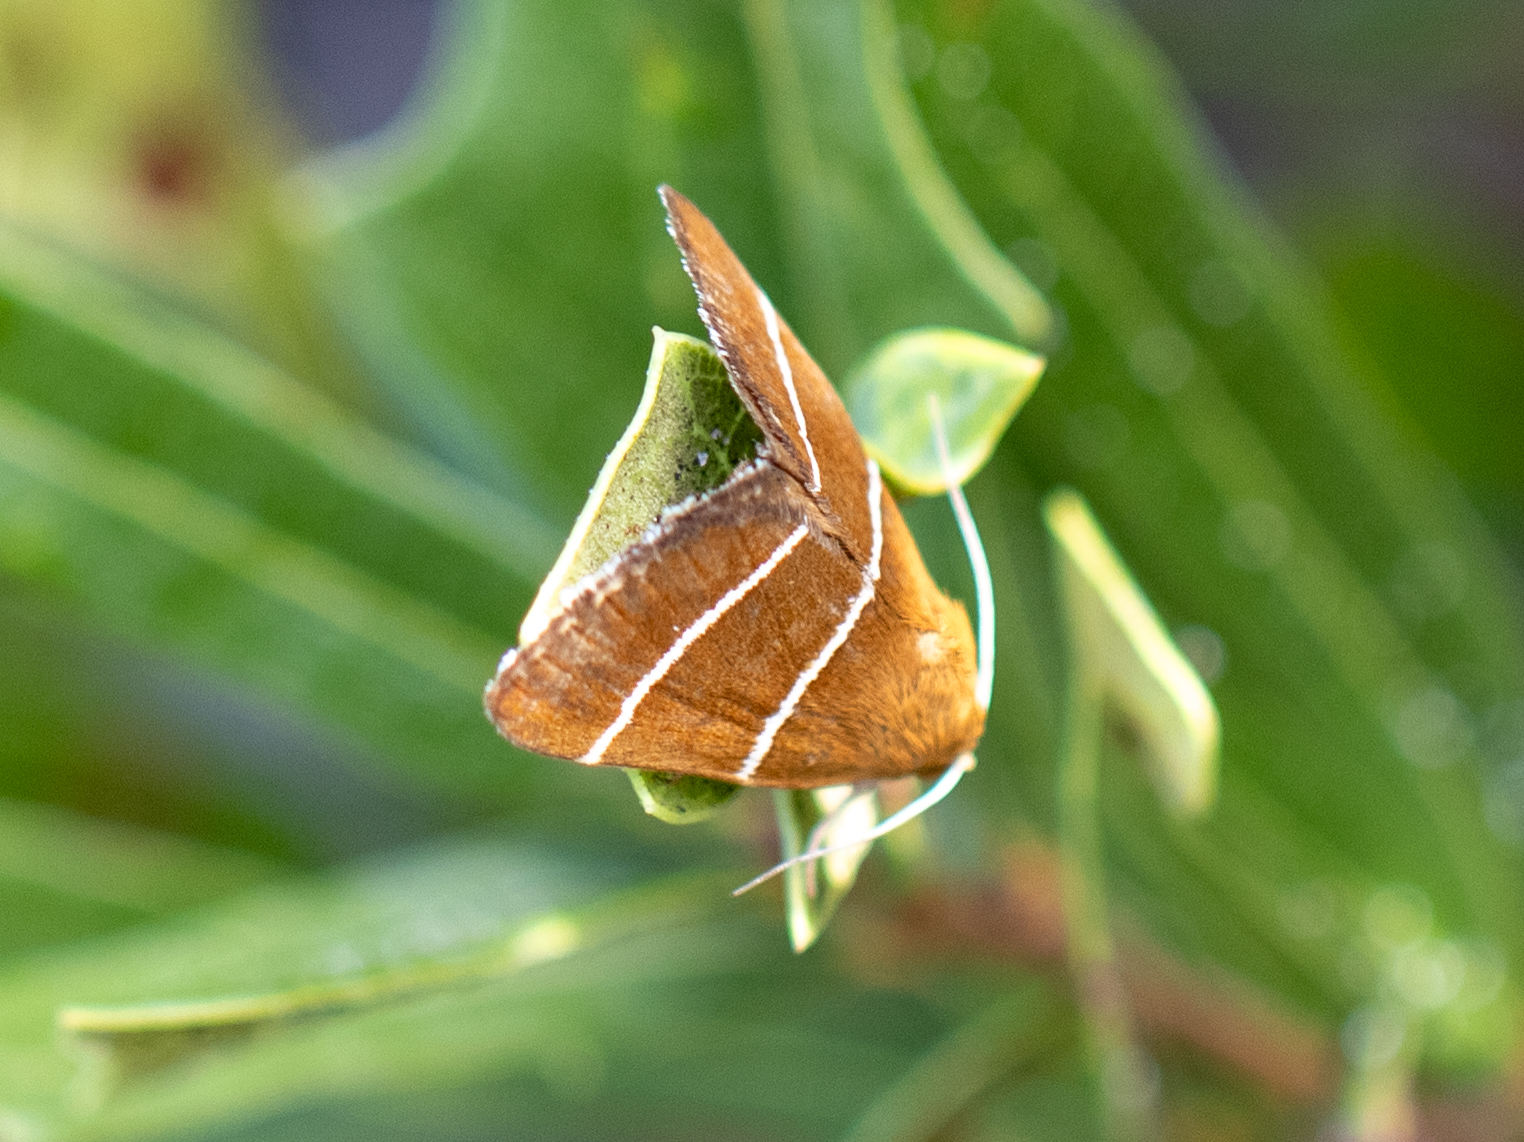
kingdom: Animalia
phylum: Arthropoda
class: Insecta
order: Lepidoptera
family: Erebidae
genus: Argyrostrotis
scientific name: Argyrostrotis quadrifilaris
